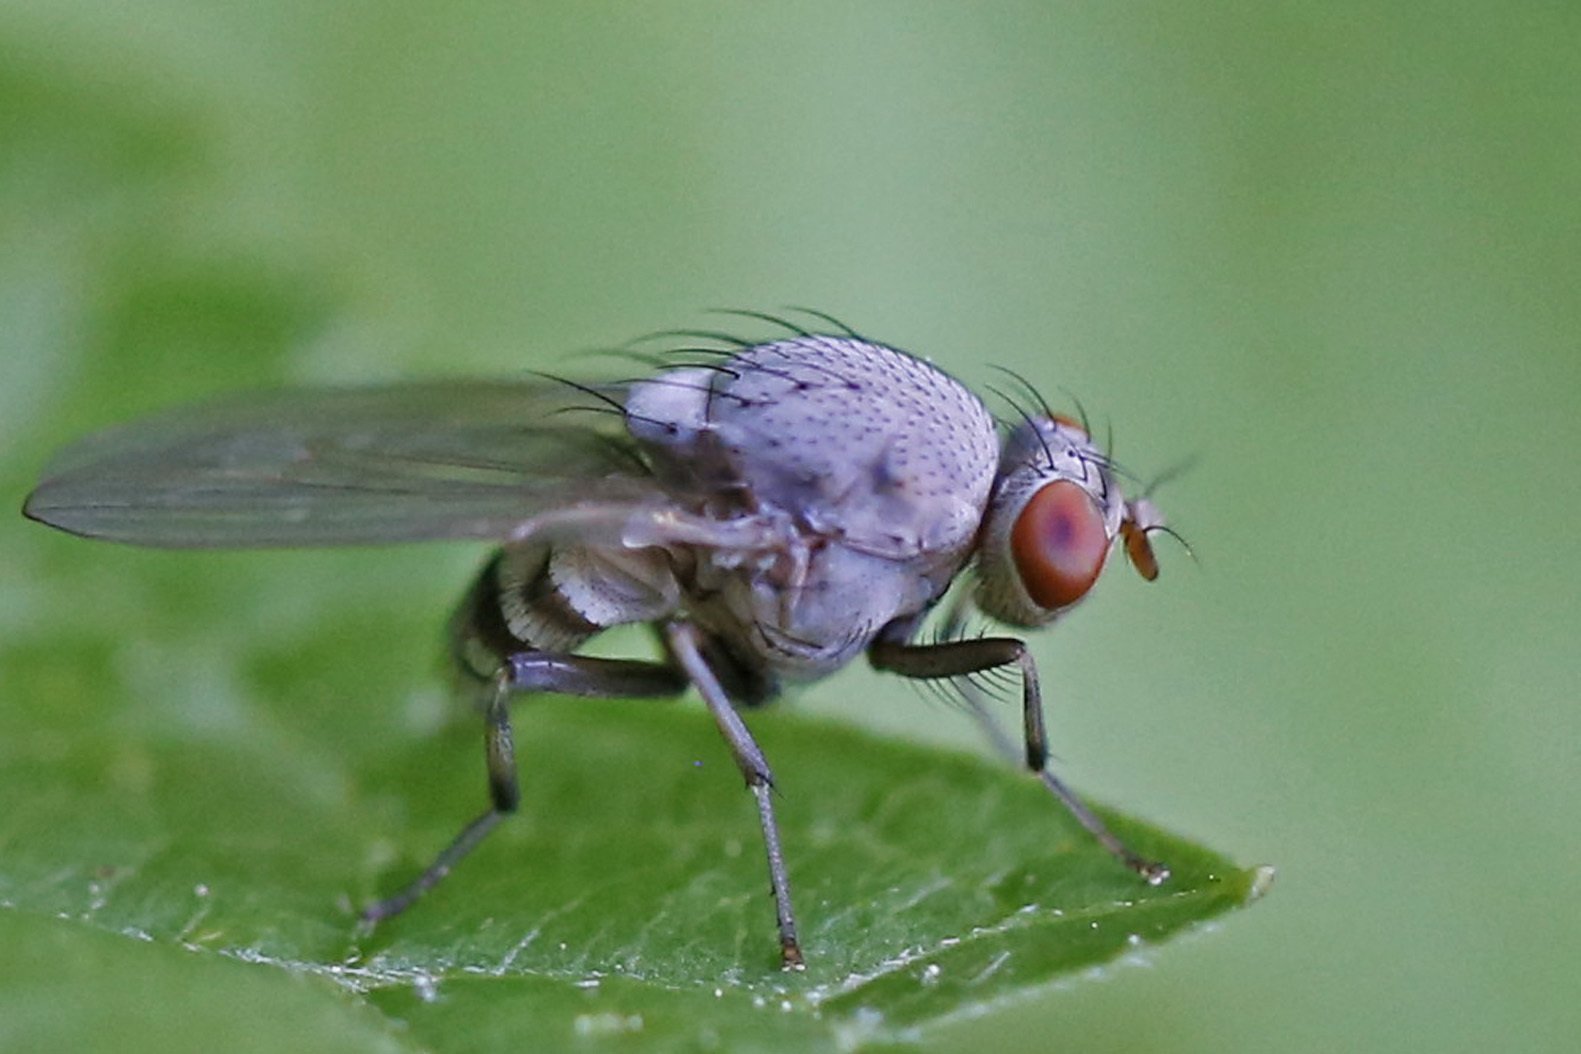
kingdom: Animalia
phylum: Arthropoda
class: Insecta
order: Diptera
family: Lauxaniidae
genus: Minettia
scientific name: Minettia magna
